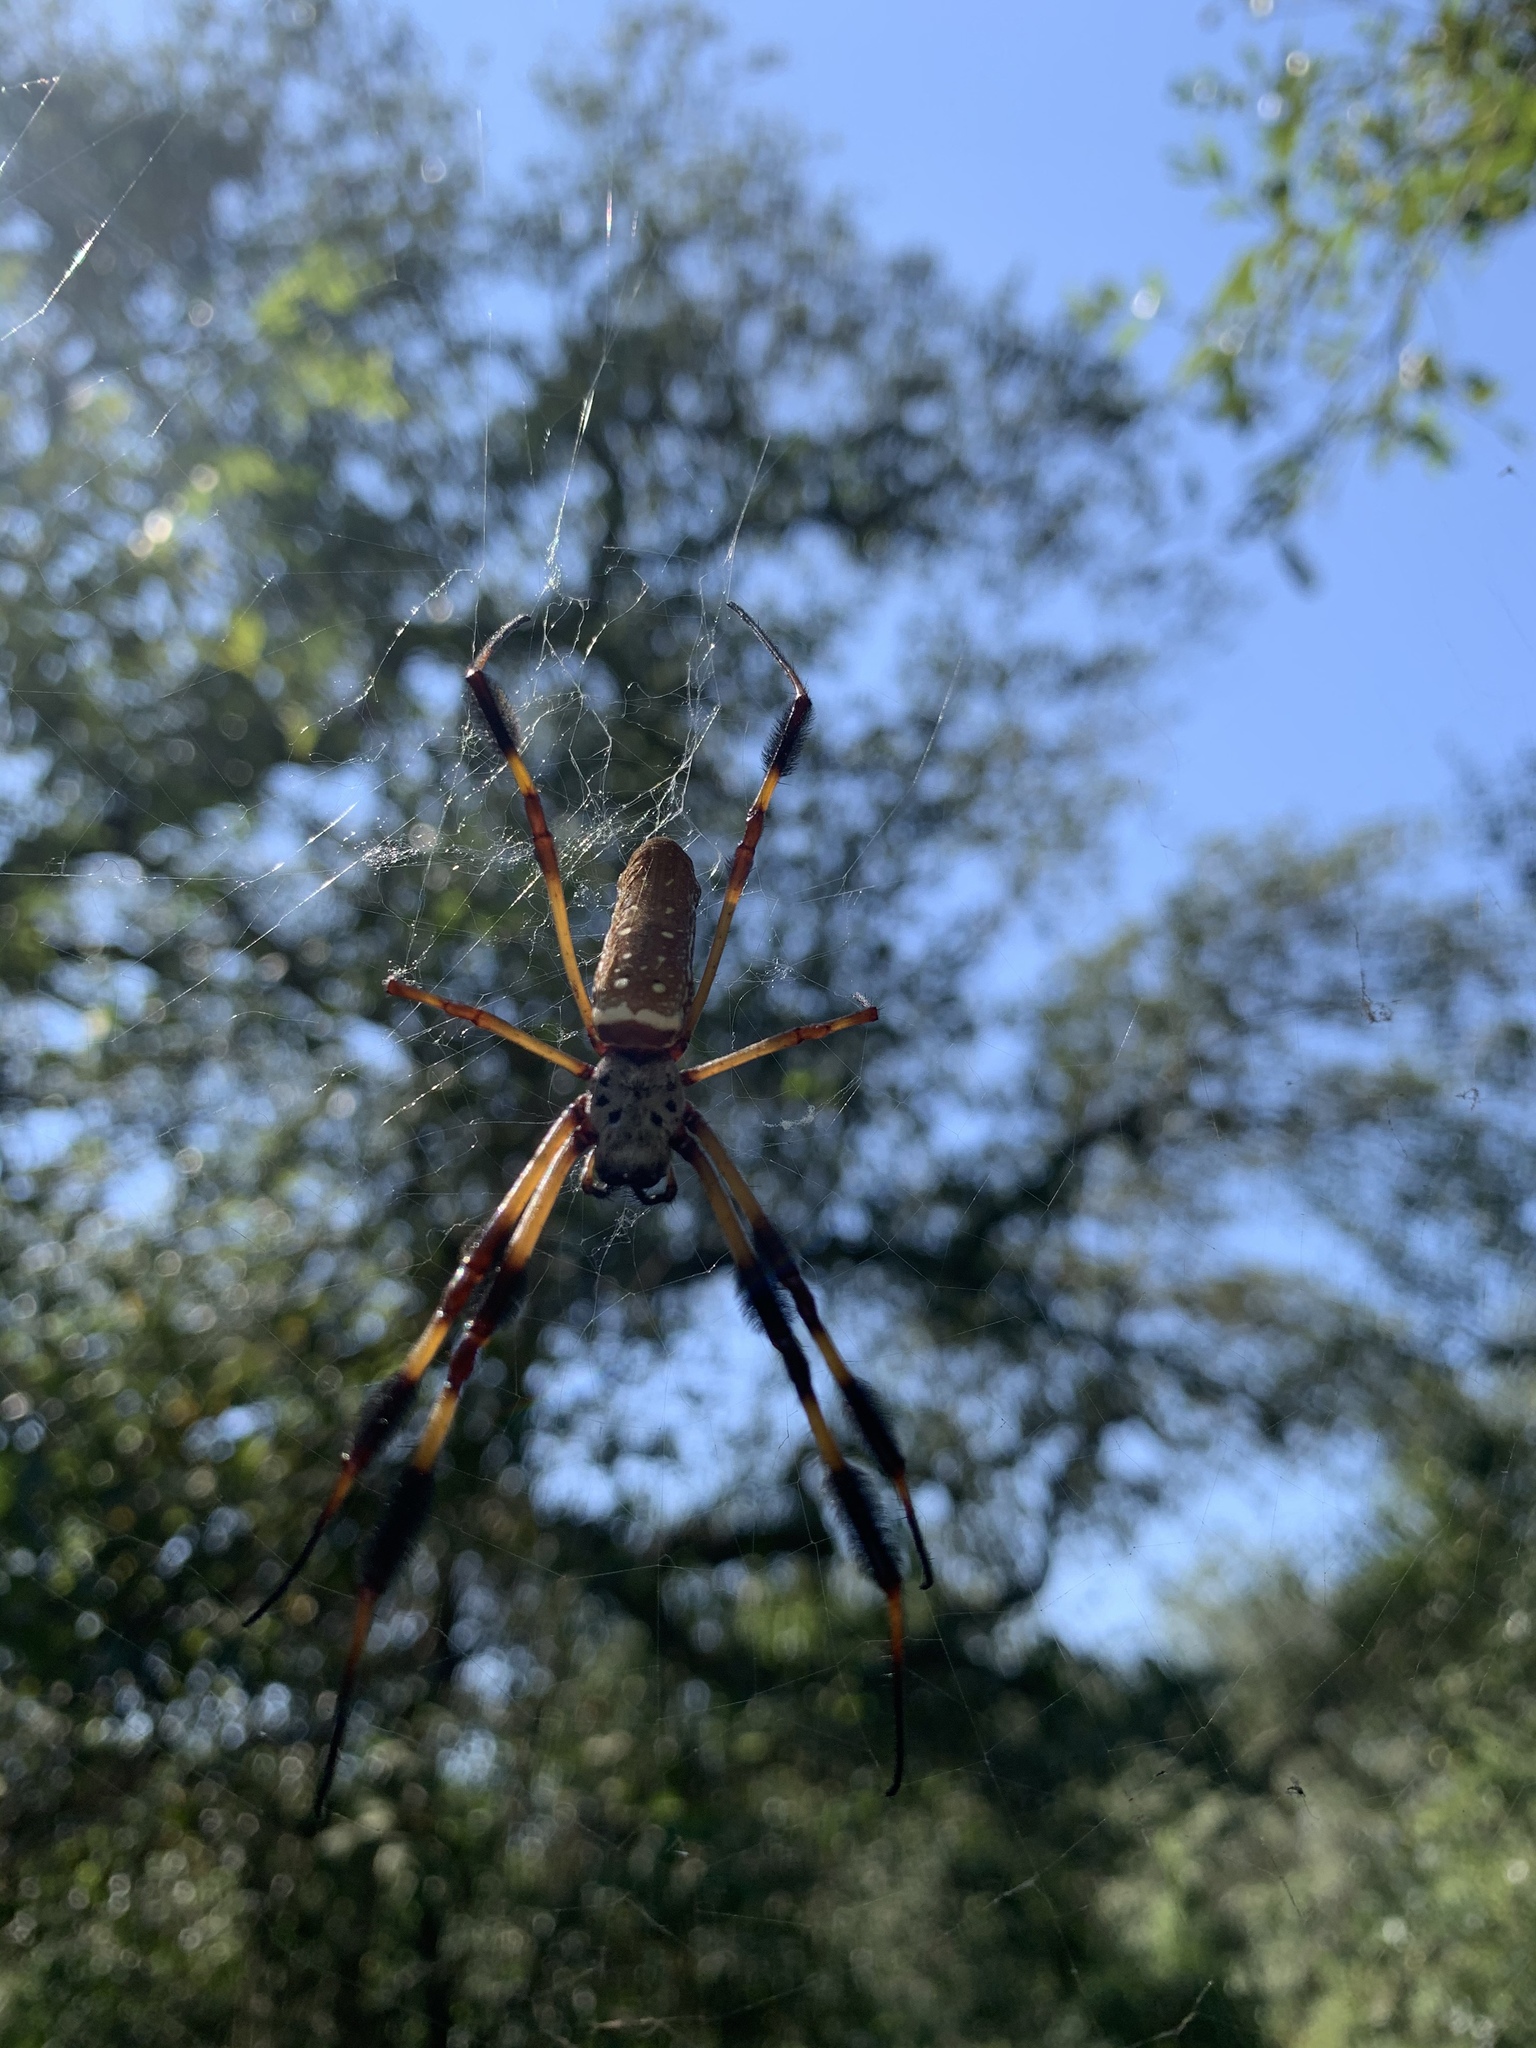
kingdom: Animalia
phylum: Arthropoda
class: Arachnida
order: Araneae
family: Araneidae
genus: Trichonephila
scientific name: Trichonephila clavipes
